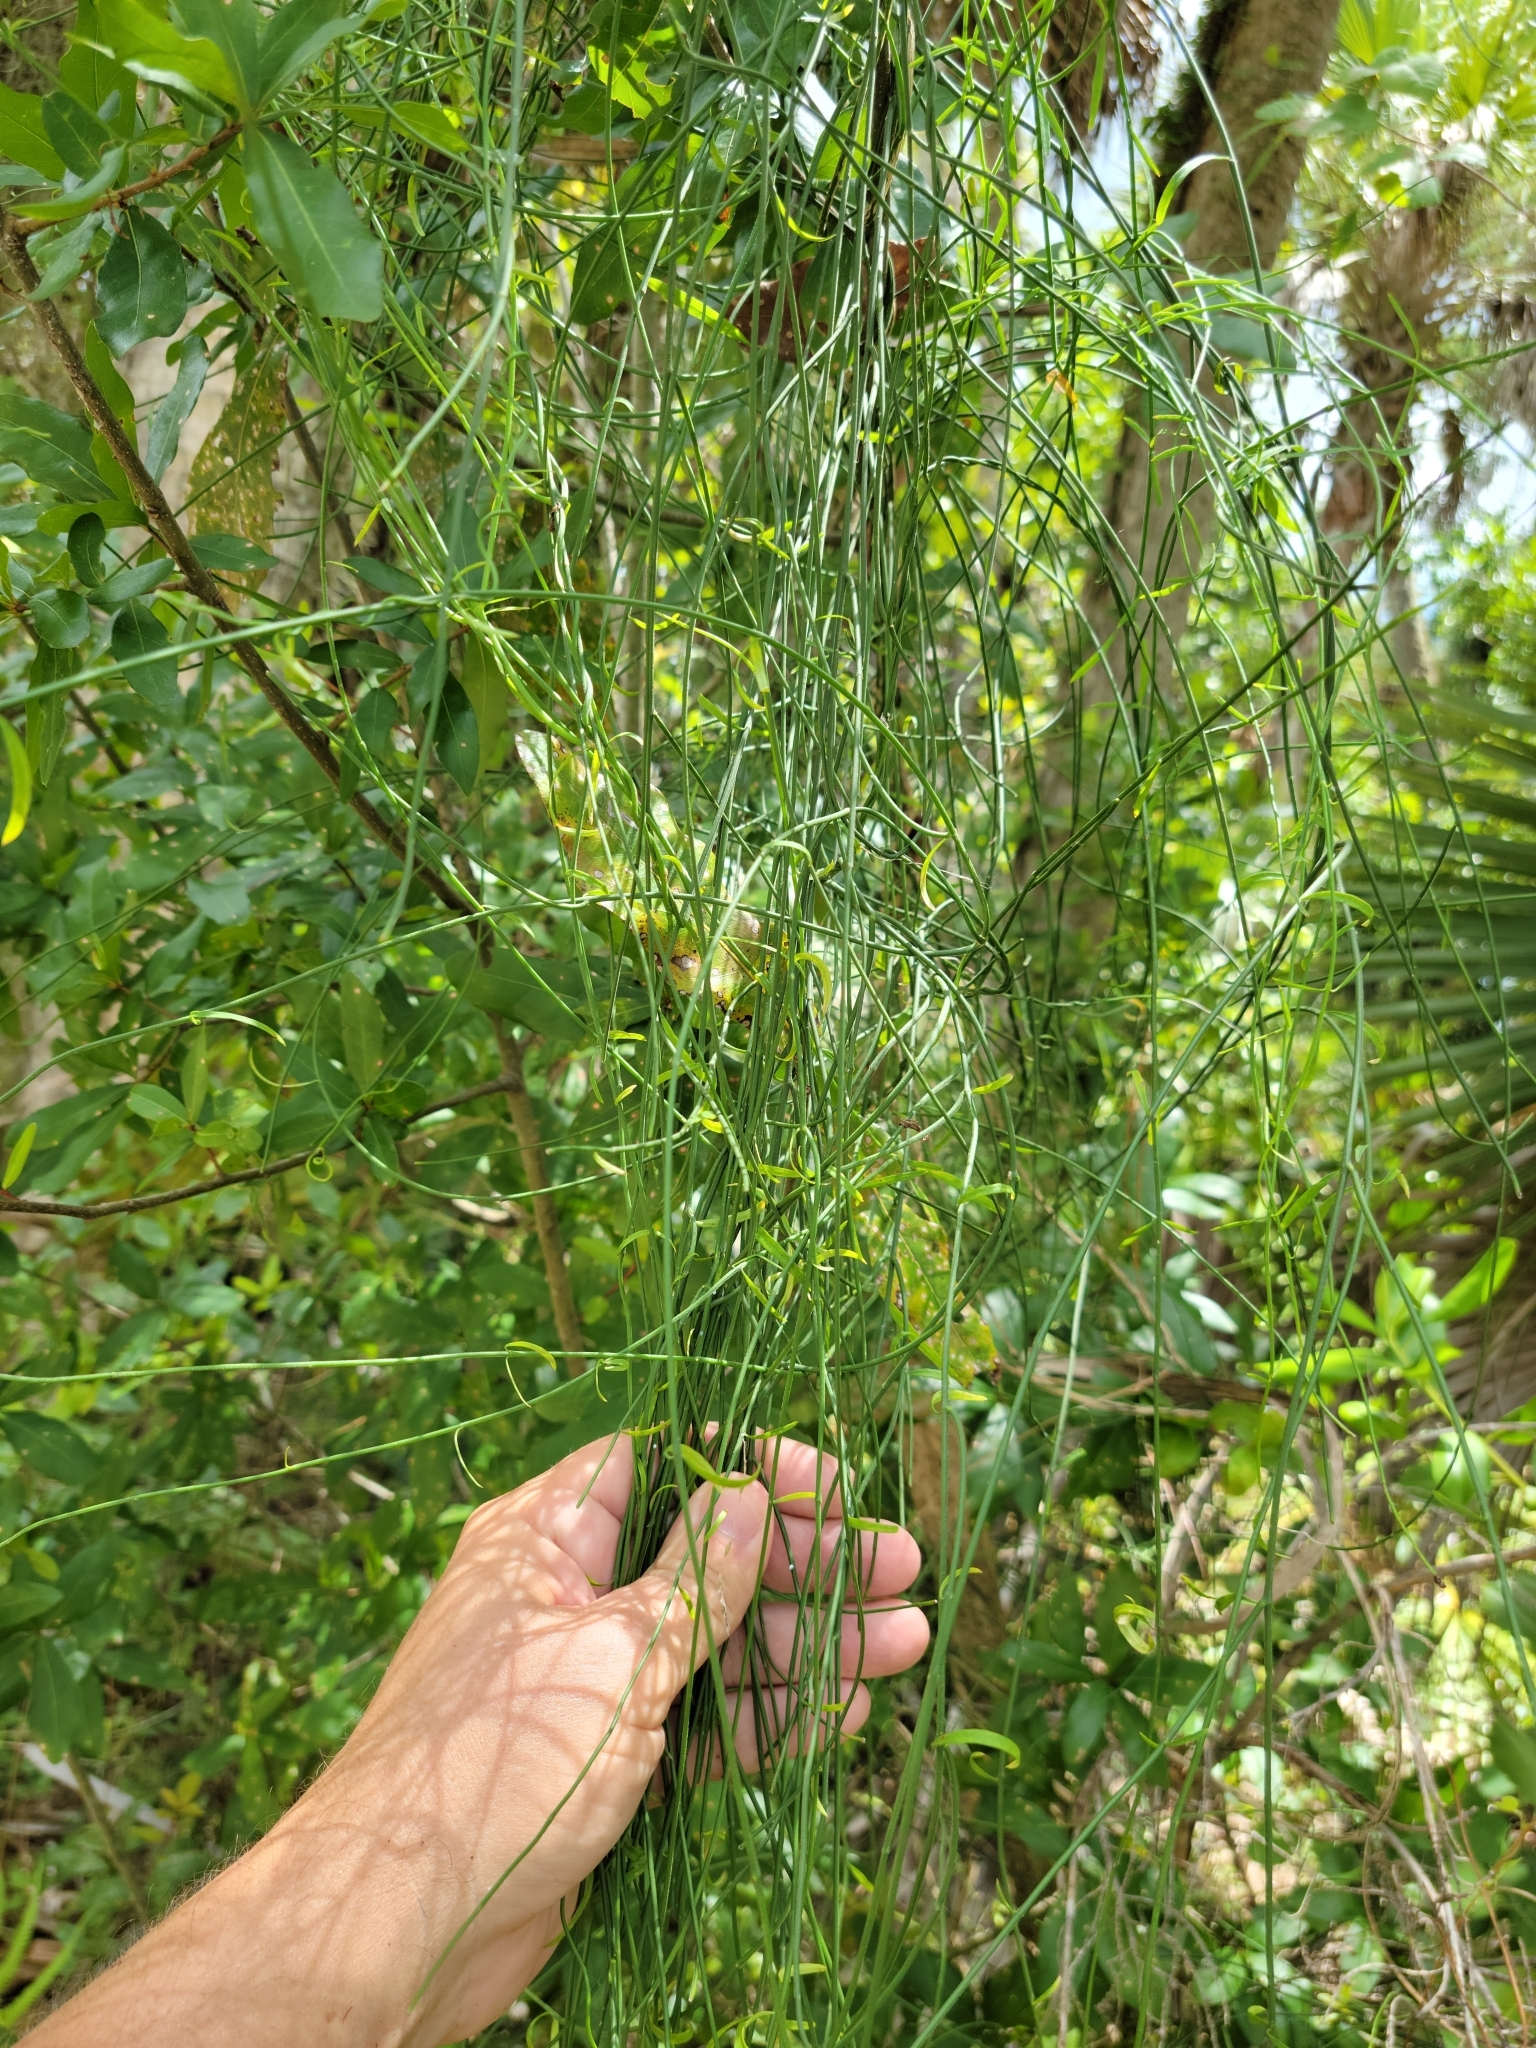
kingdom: Plantae
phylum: Tracheophyta
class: Magnoliopsida
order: Gentianales
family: Apocynaceae
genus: Orthosia
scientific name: Orthosia scoparia
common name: Leafless swallow-wort
